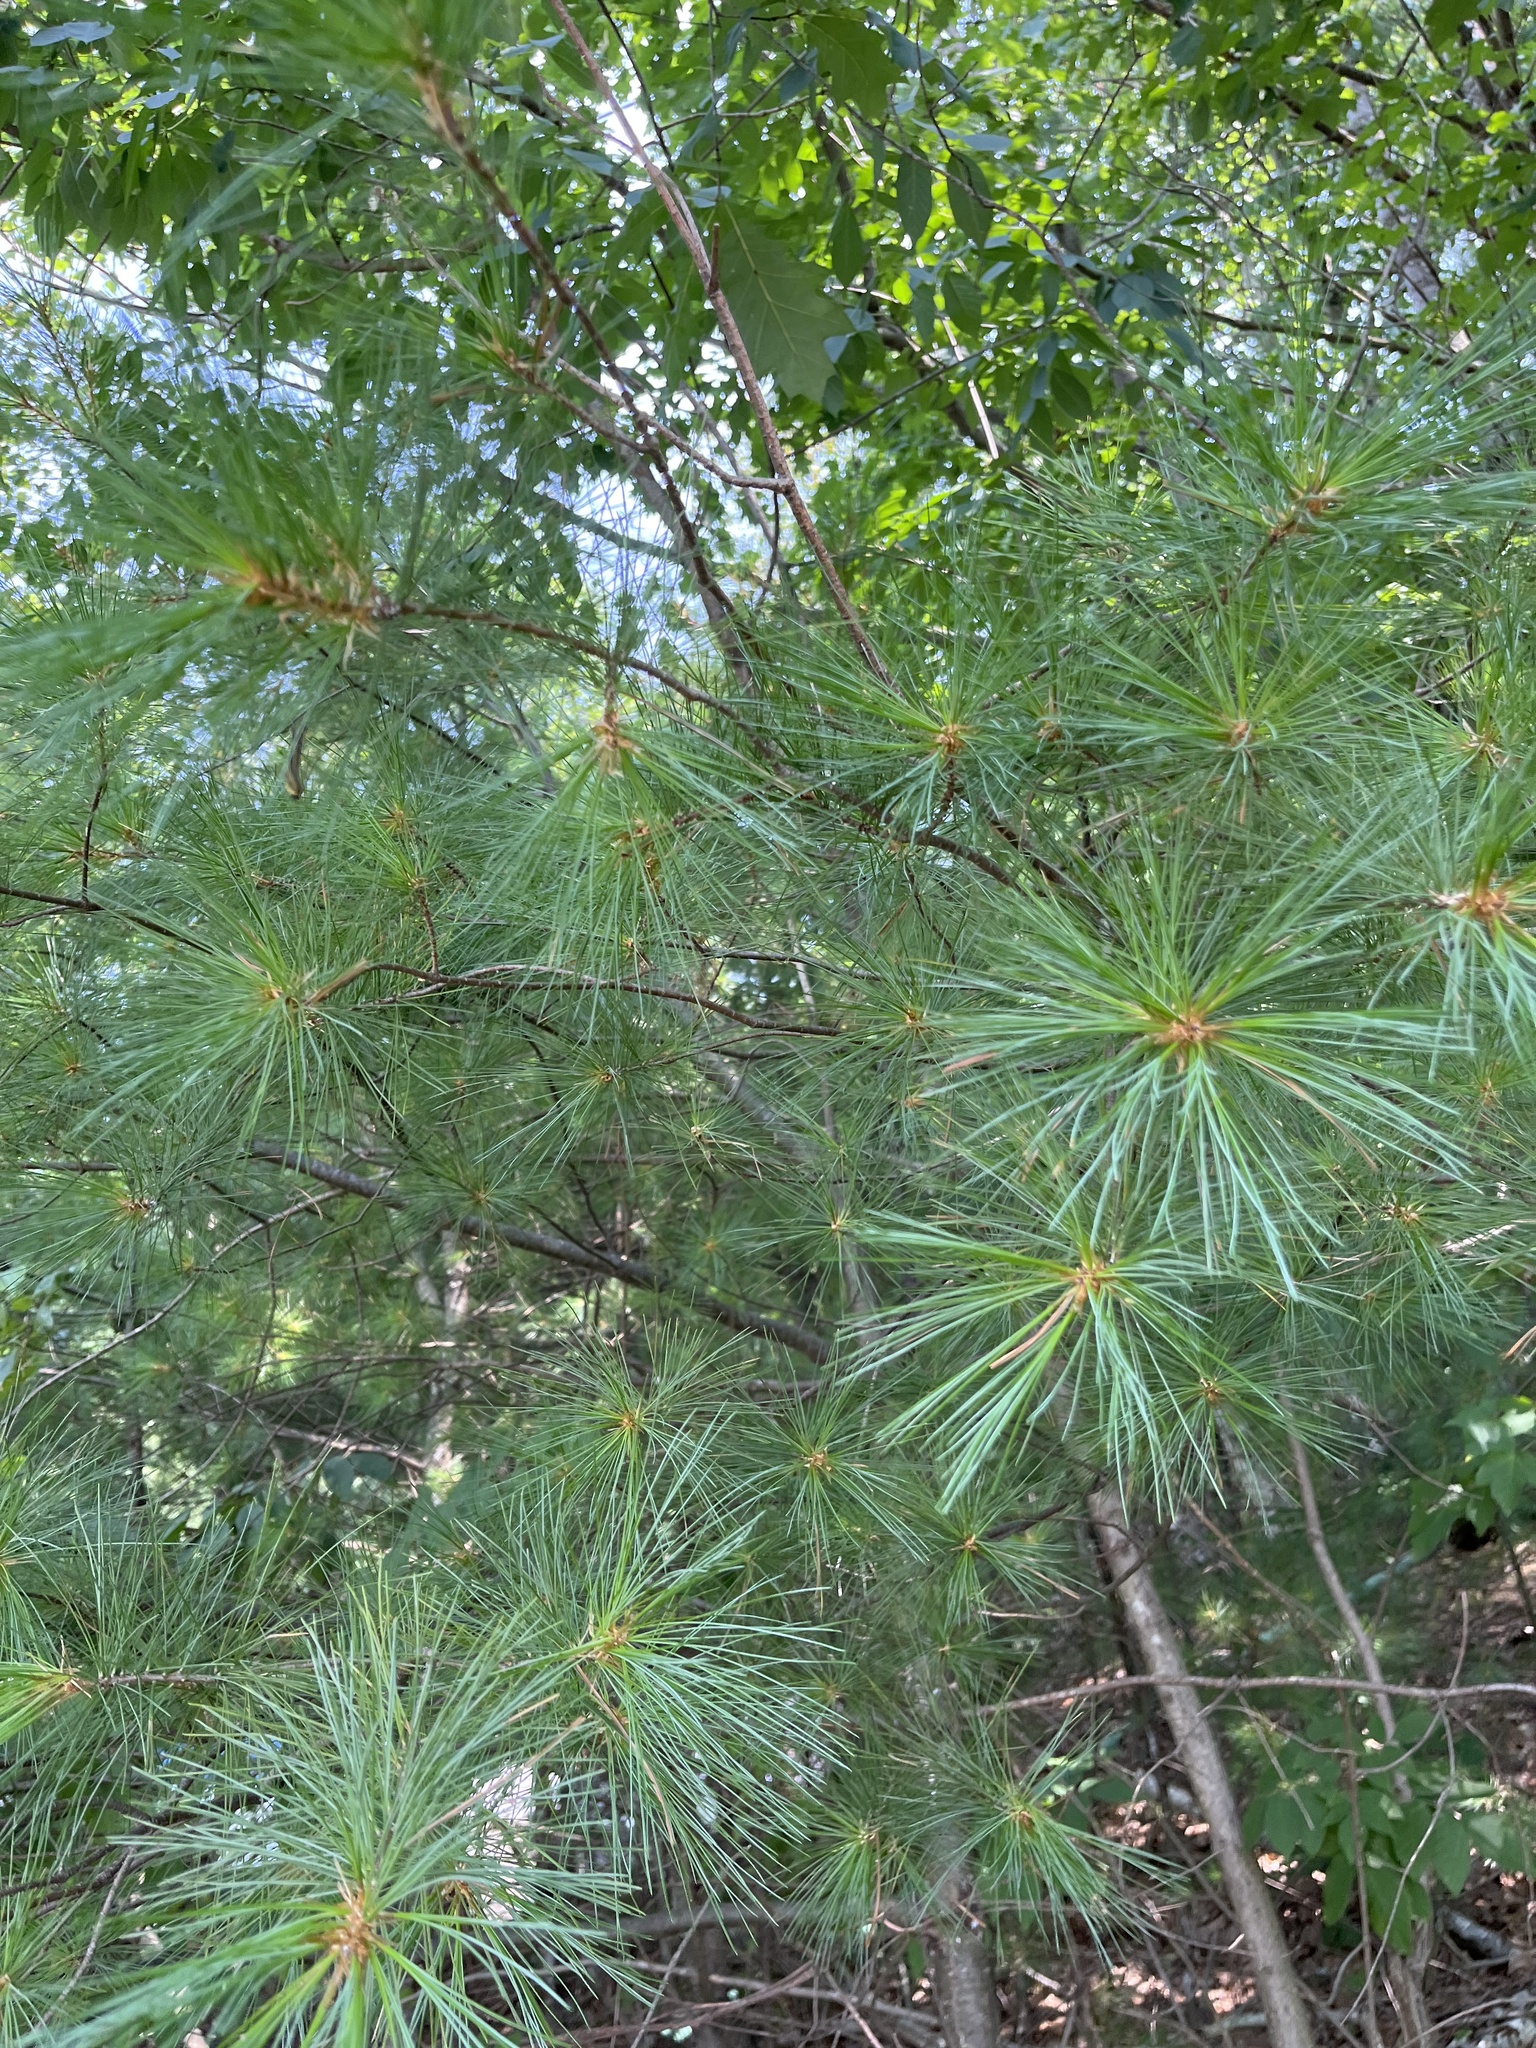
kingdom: Plantae
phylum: Tracheophyta
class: Pinopsida
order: Pinales
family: Pinaceae
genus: Pinus
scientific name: Pinus strobus
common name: Weymouth pine
